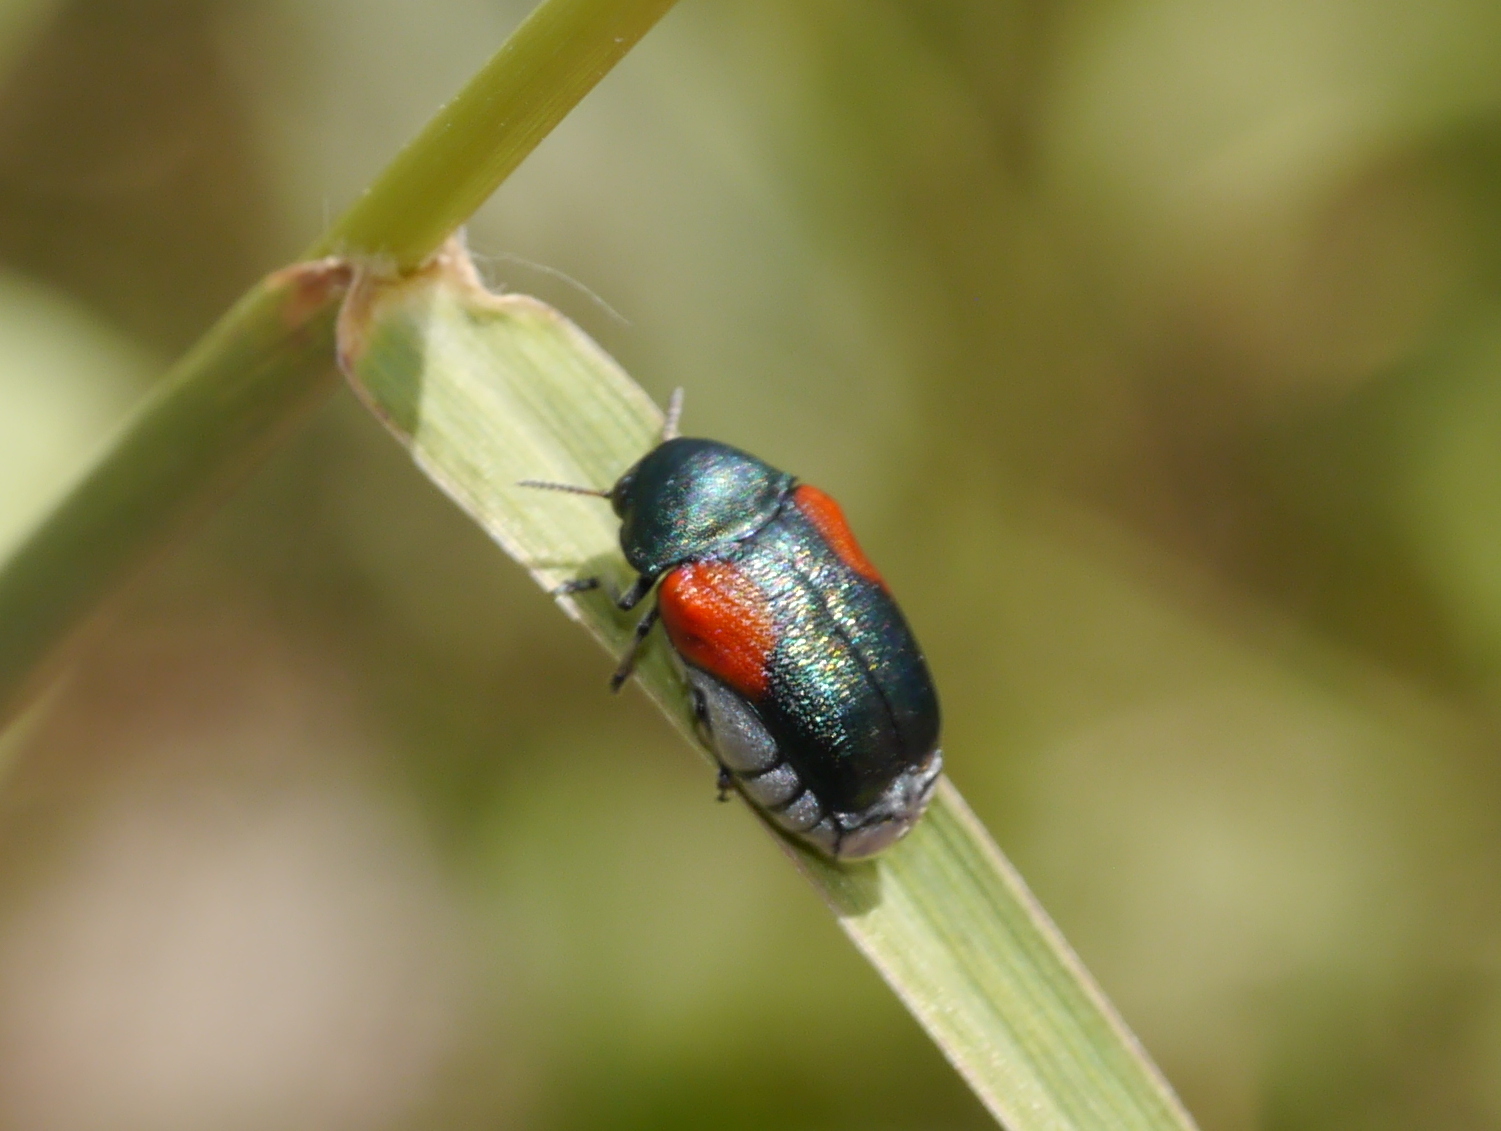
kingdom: Animalia
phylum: Arthropoda
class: Insecta
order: Coleoptera
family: Chrysomelidae
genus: Saxinis
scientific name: Saxinis sonorensis
